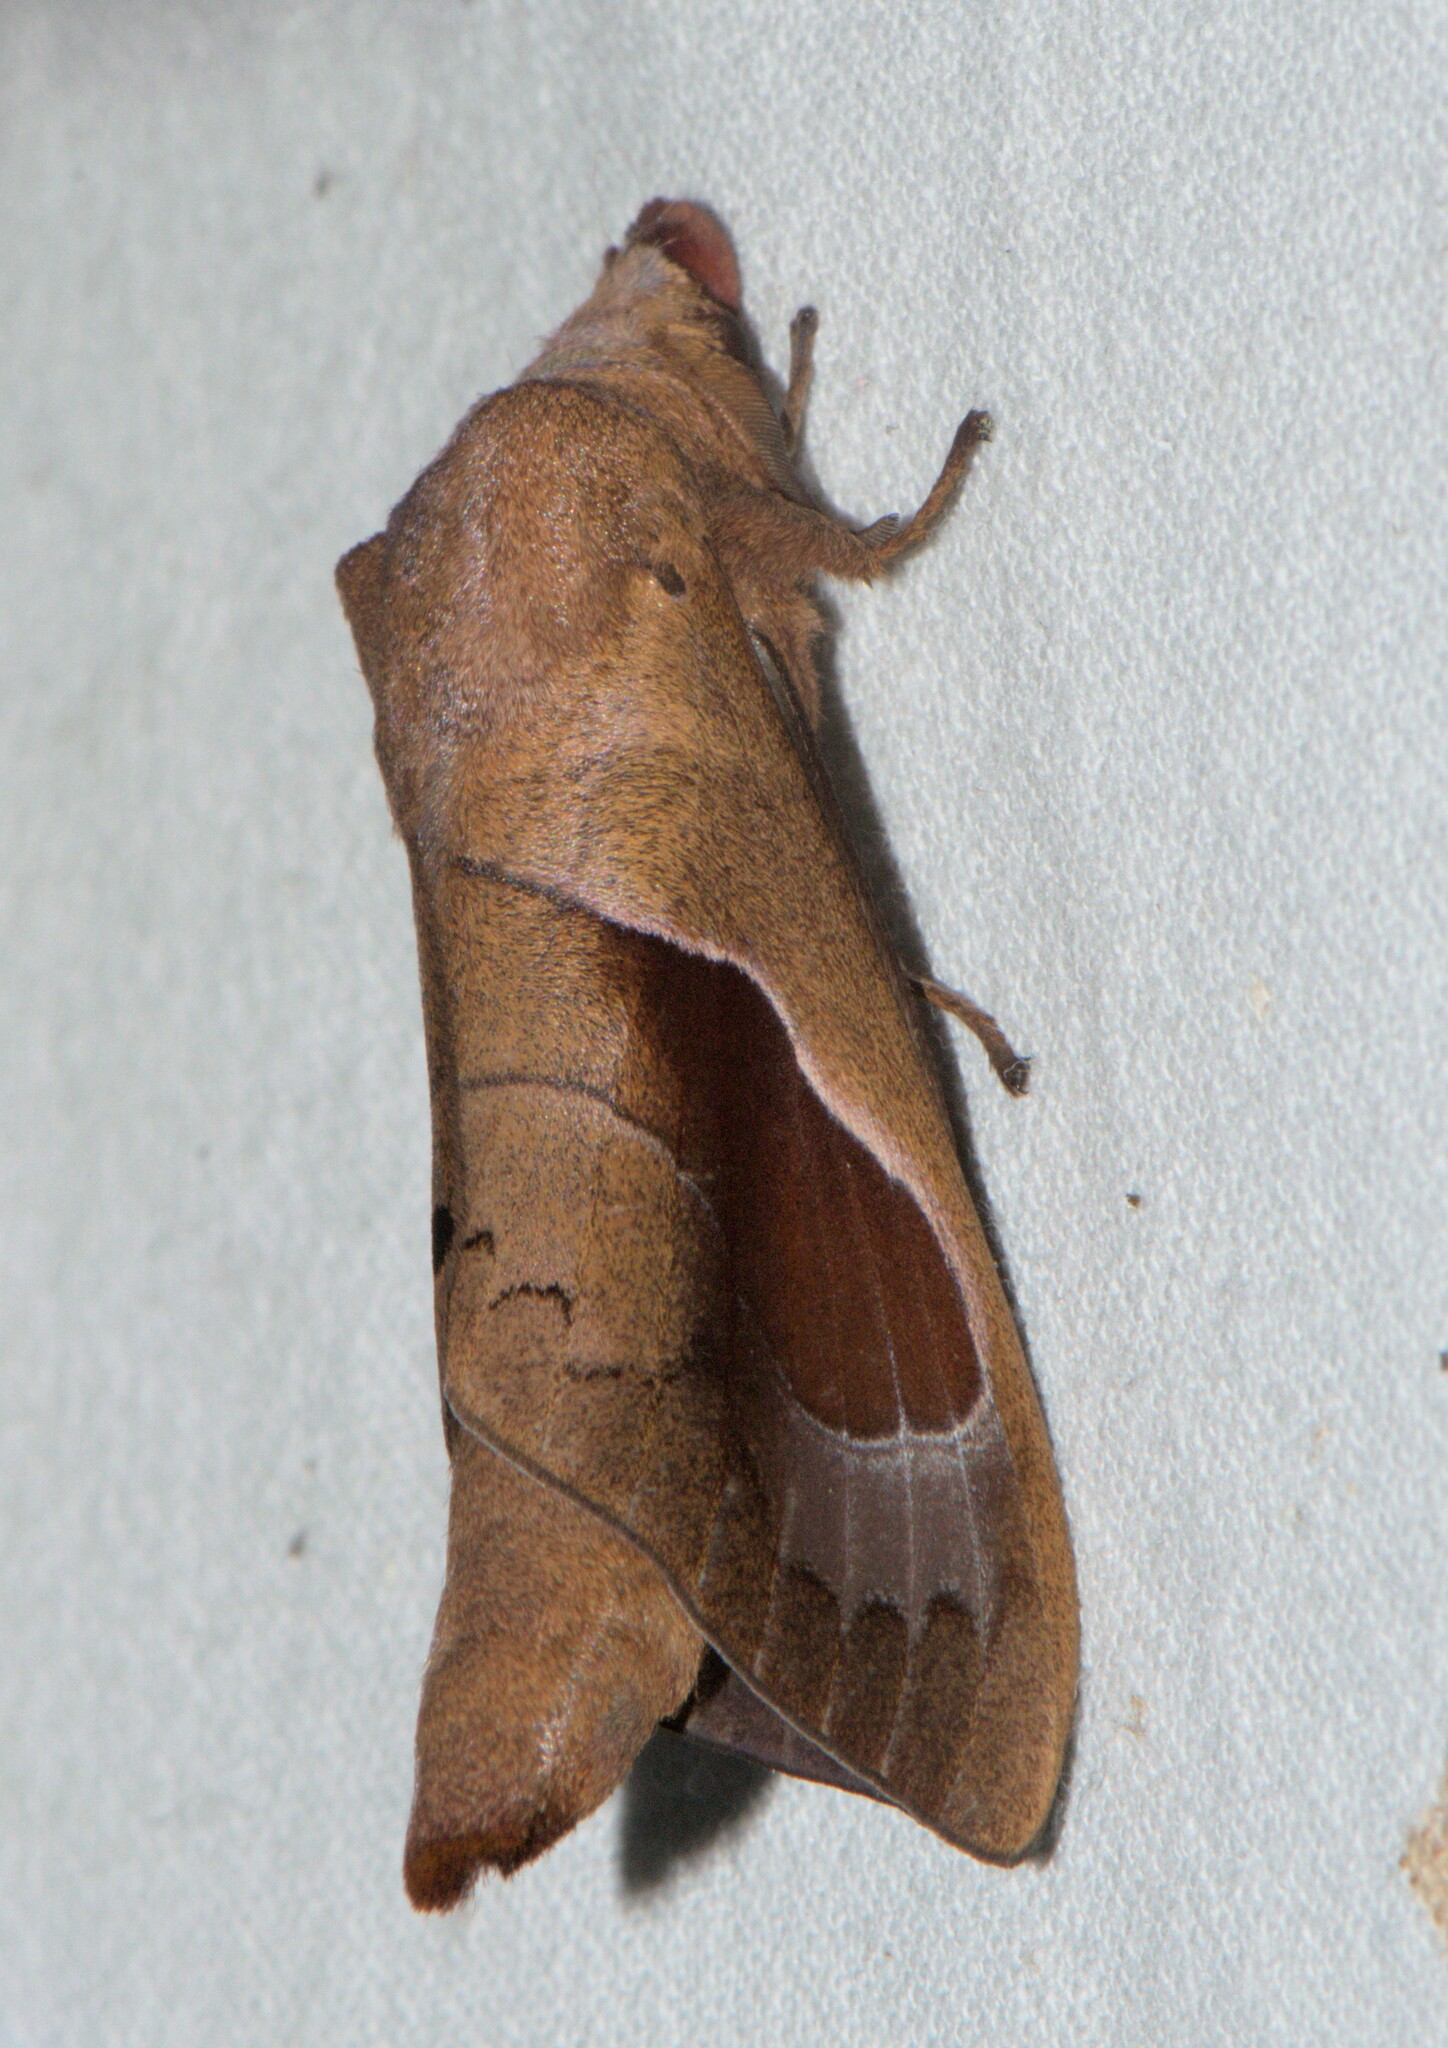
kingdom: Animalia
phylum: Arthropoda
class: Insecta
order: Lepidoptera
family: Lasiocampidae
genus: Paralebeda
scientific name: Paralebeda plagifera
